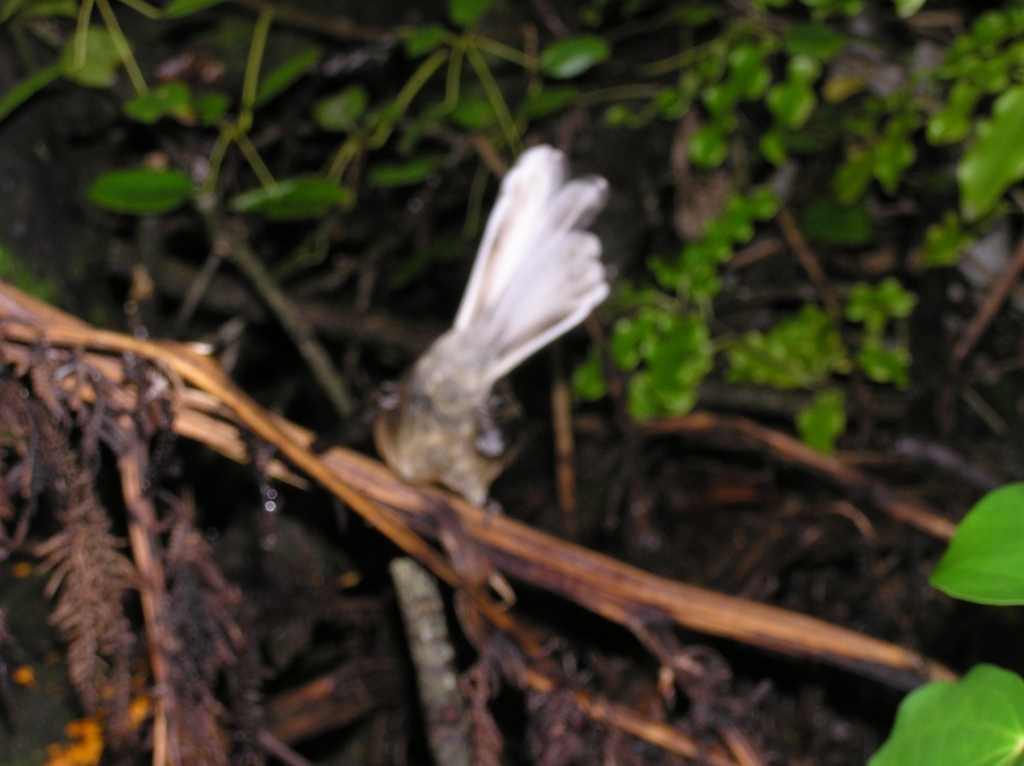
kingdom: Animalia
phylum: Chordata
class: Aves
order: Passeriformes
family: Rhipiduridae
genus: Rhipidura
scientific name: Rhipidura fuliginosa
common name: New zealand fantail
